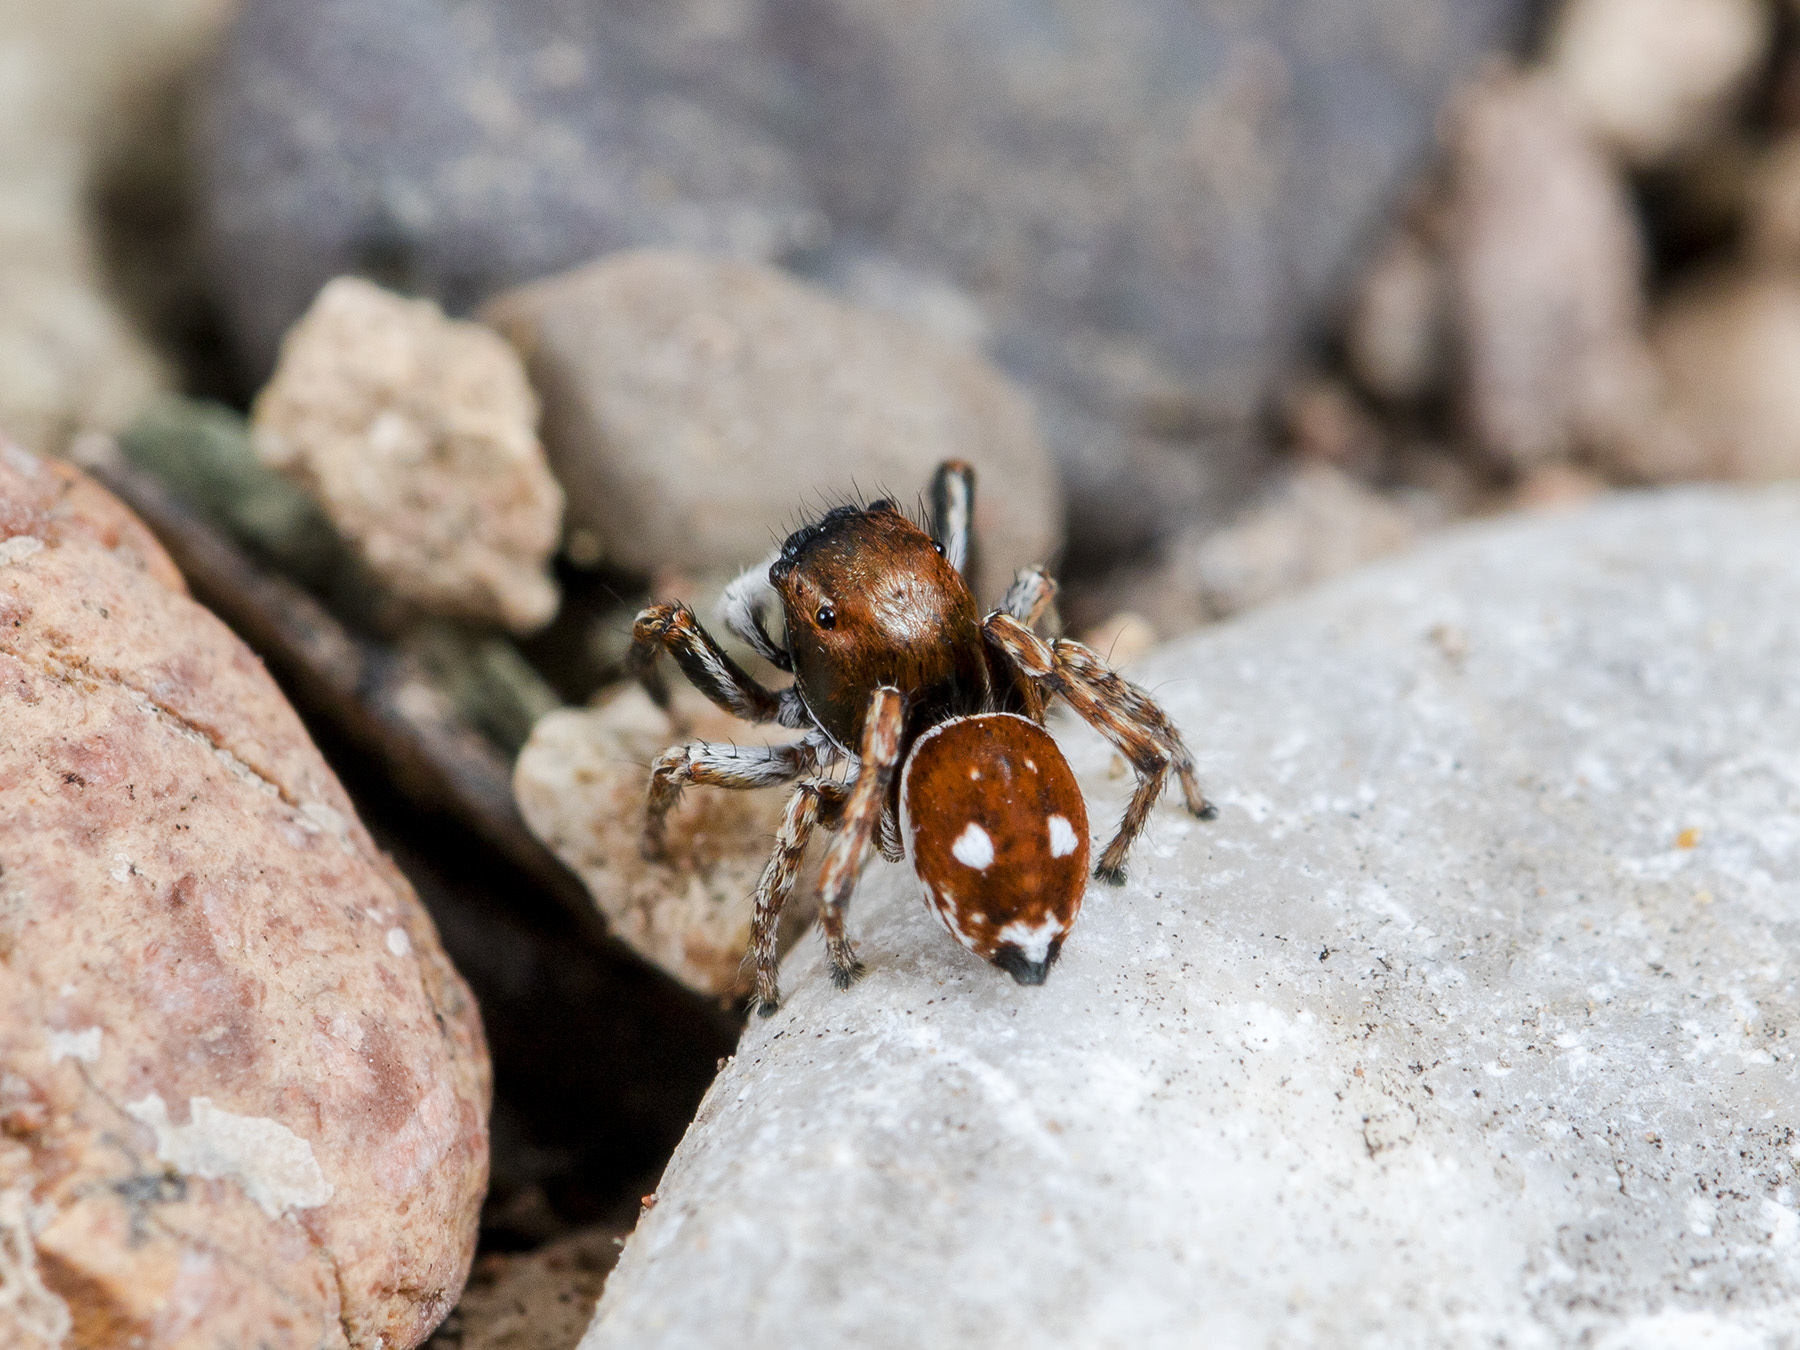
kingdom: Animalia
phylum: Arthropoda
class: Arachnida
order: Araneae
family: Salticidae
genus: Attulus
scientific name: Attulus mirandus
